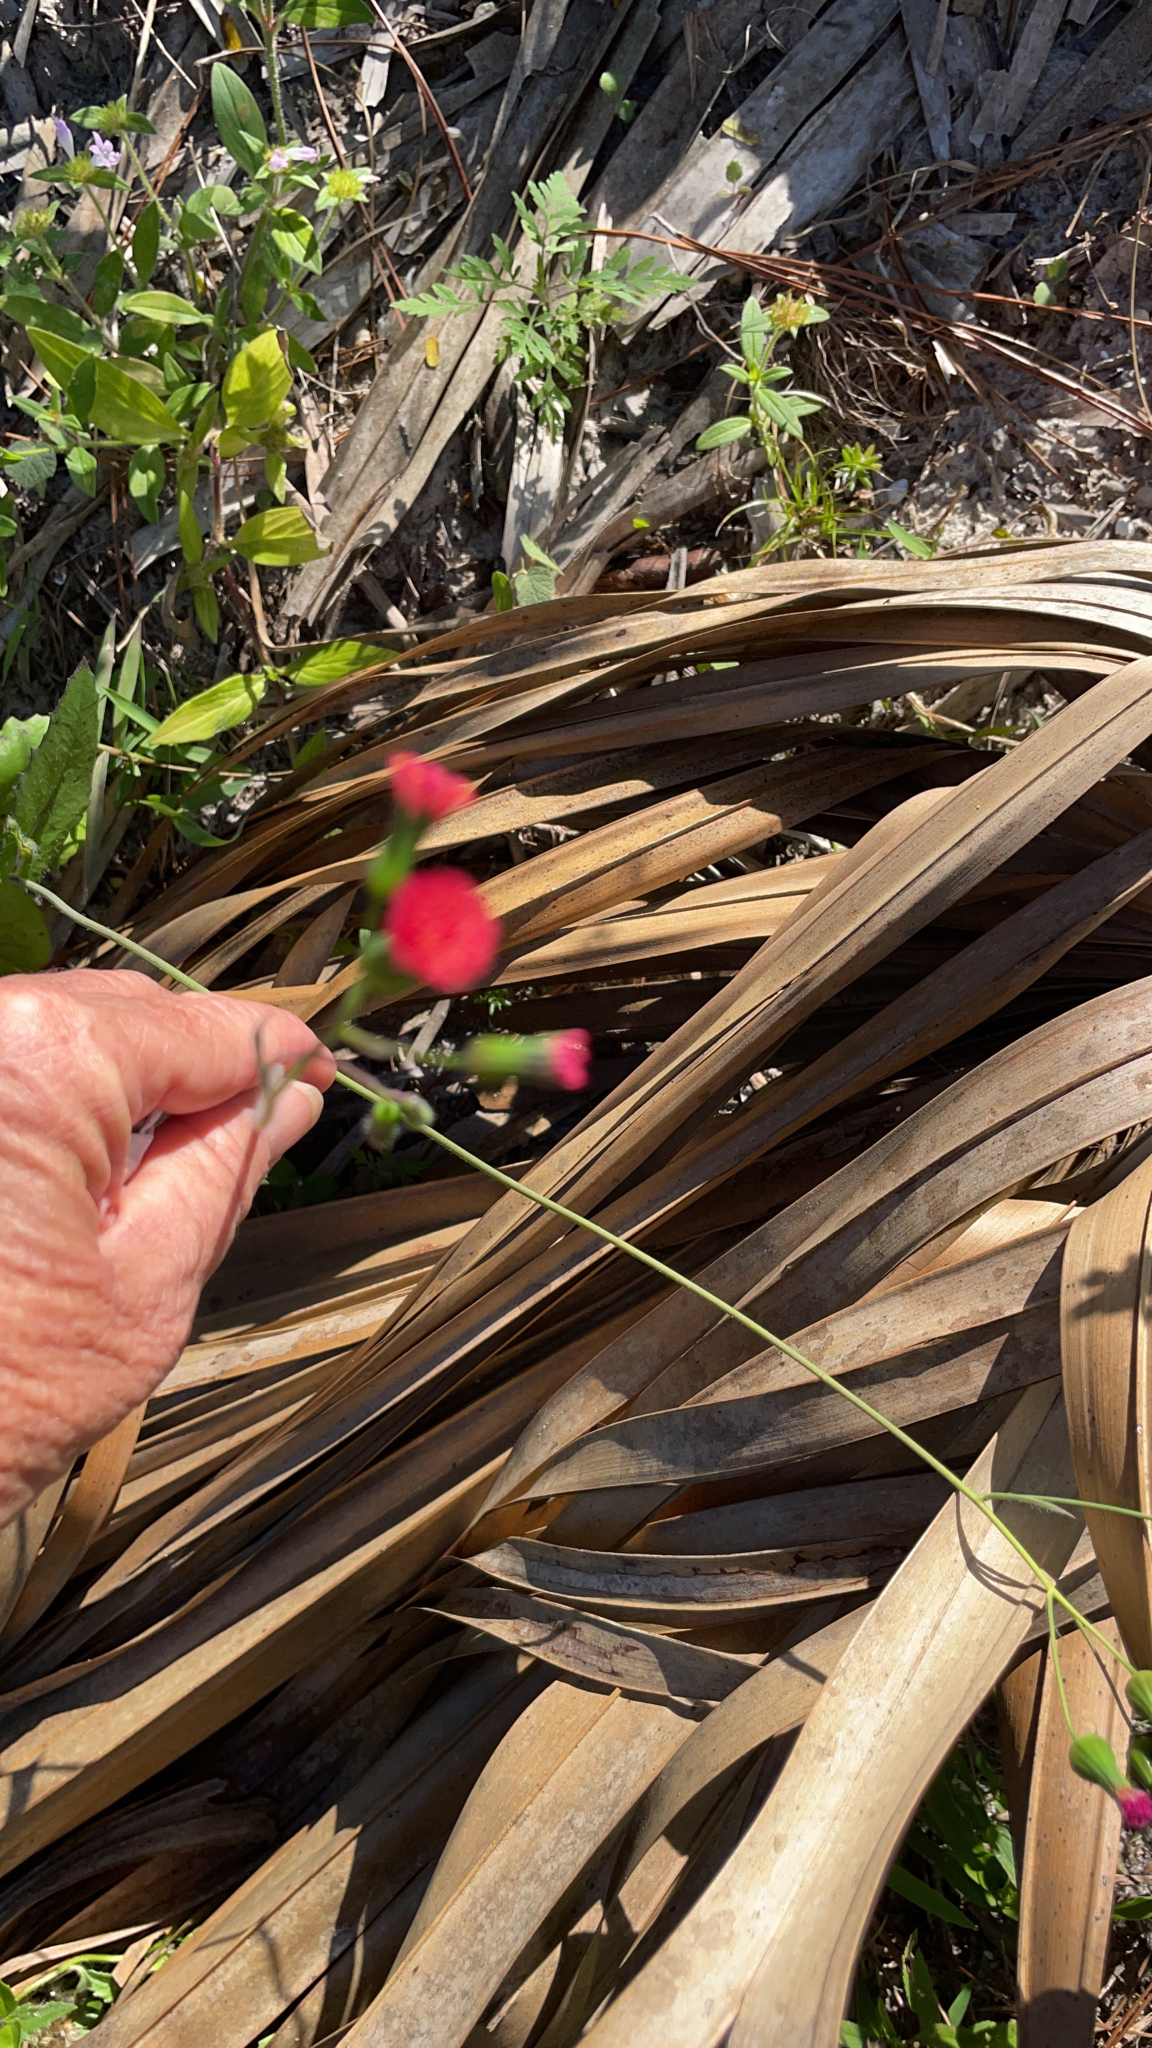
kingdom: Plantae
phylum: Tracheophyta
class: Magnoliopsida
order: Asterales
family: Asteraceae
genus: Emilia
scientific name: Emilia fosbergii
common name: Florida tasselflower
